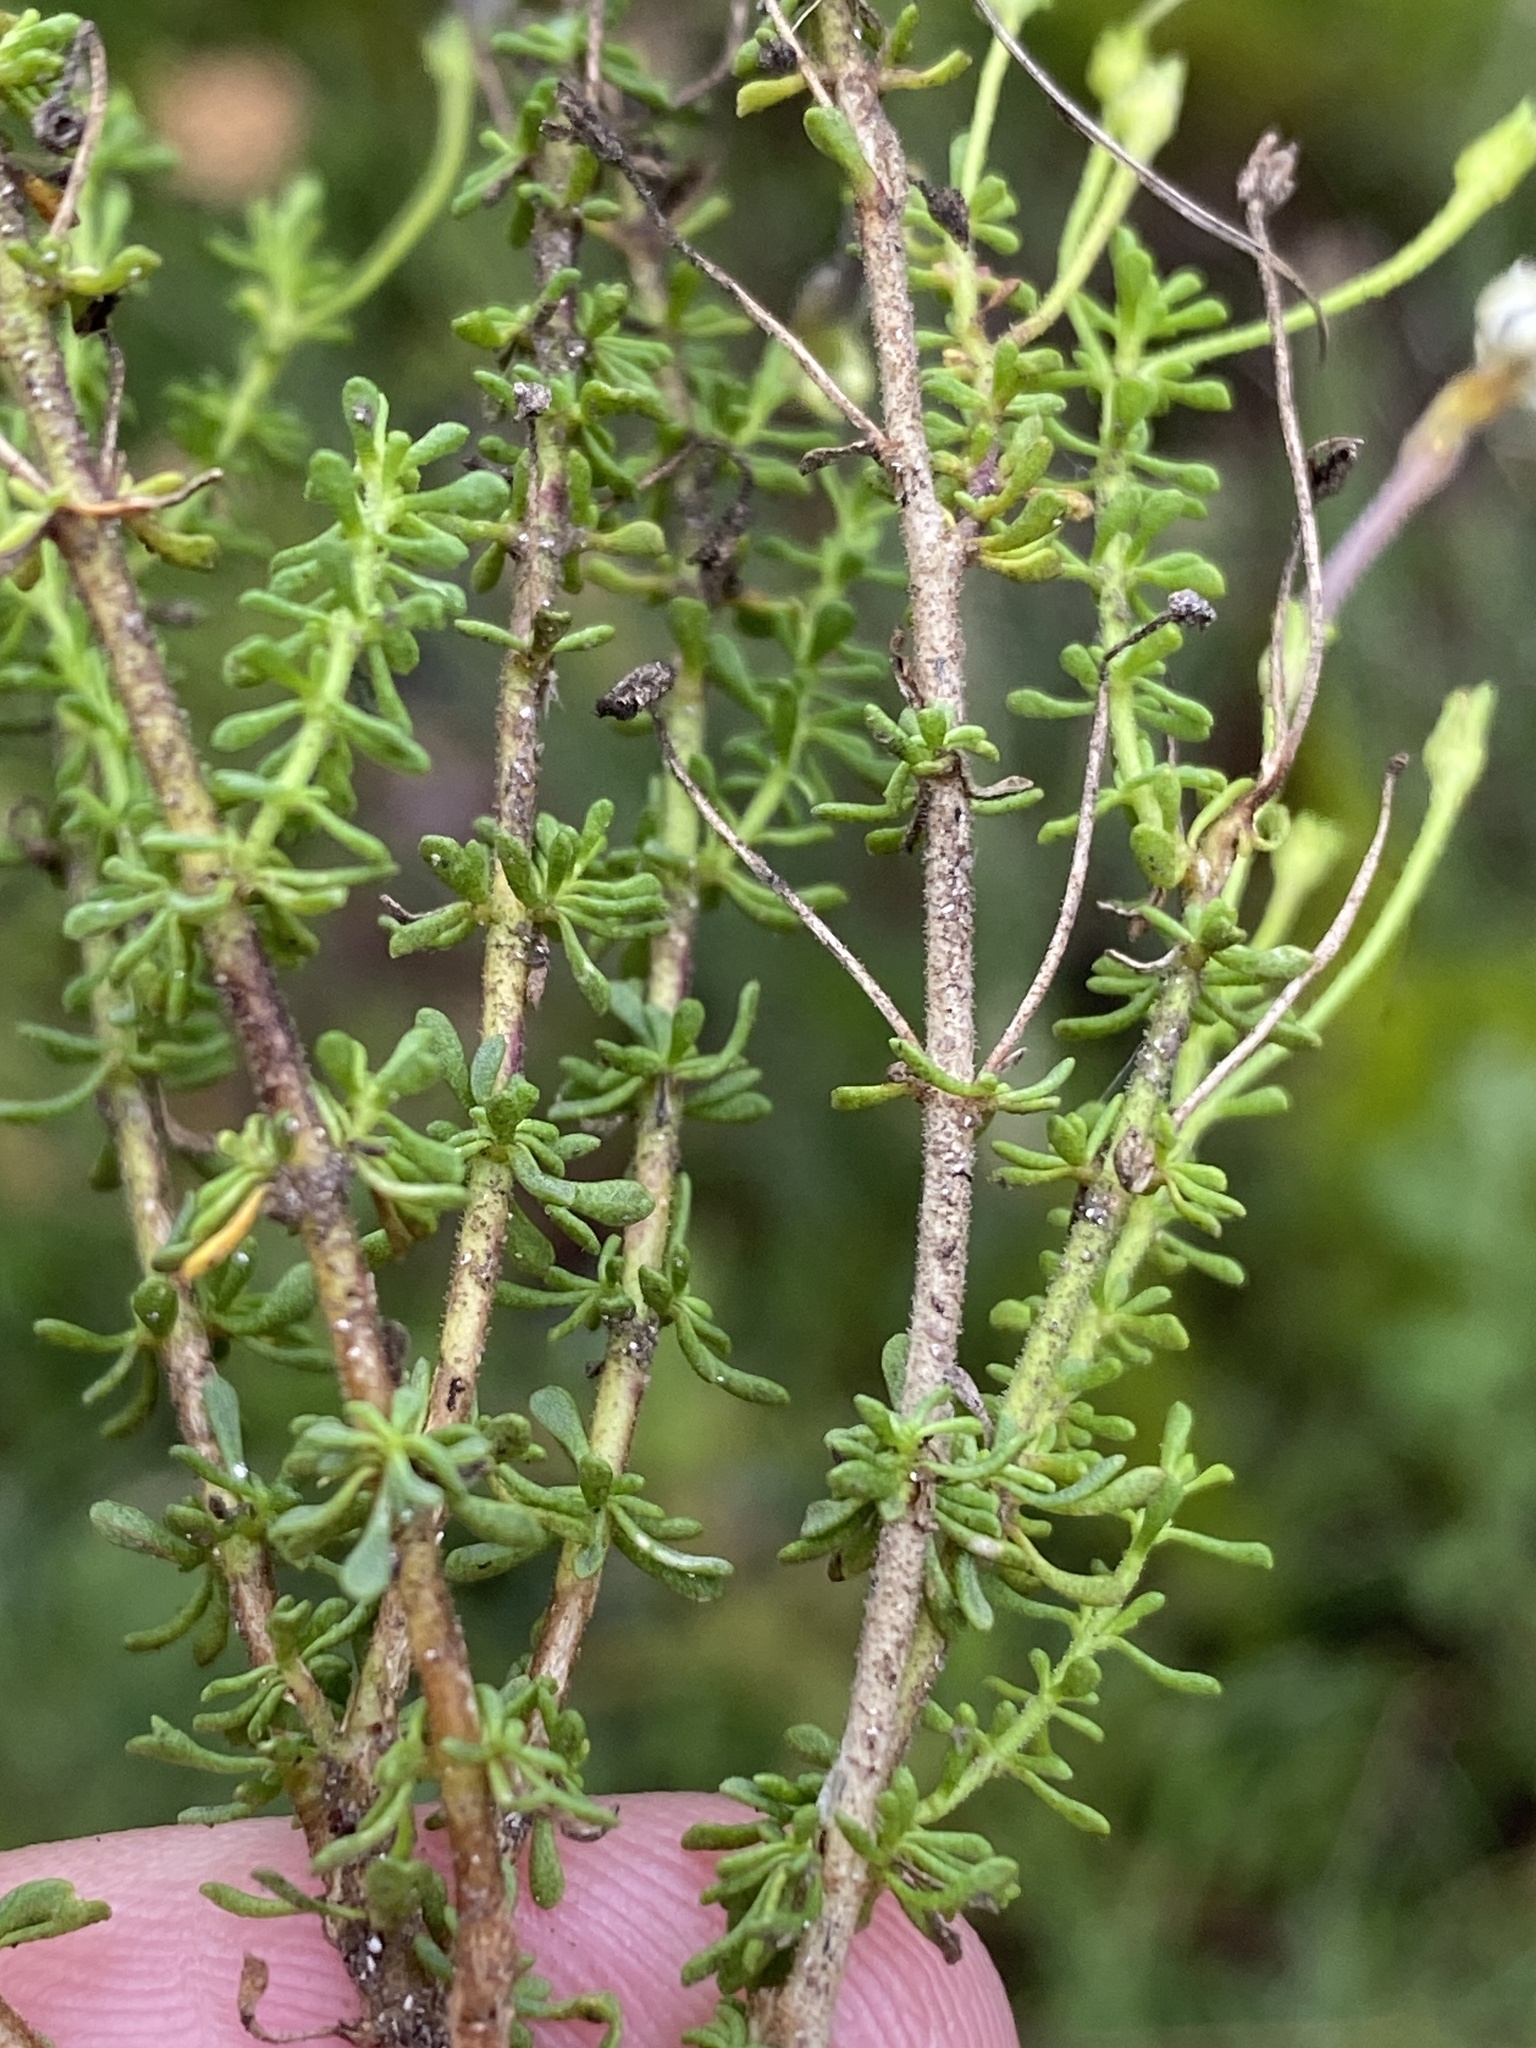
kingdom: Plantae
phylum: Tracheophyta
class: Magnoliopsida
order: Lamiales
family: Scrophulariaceae
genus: Jamesbrittenia
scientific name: Jamesbrittenia albomarginata
